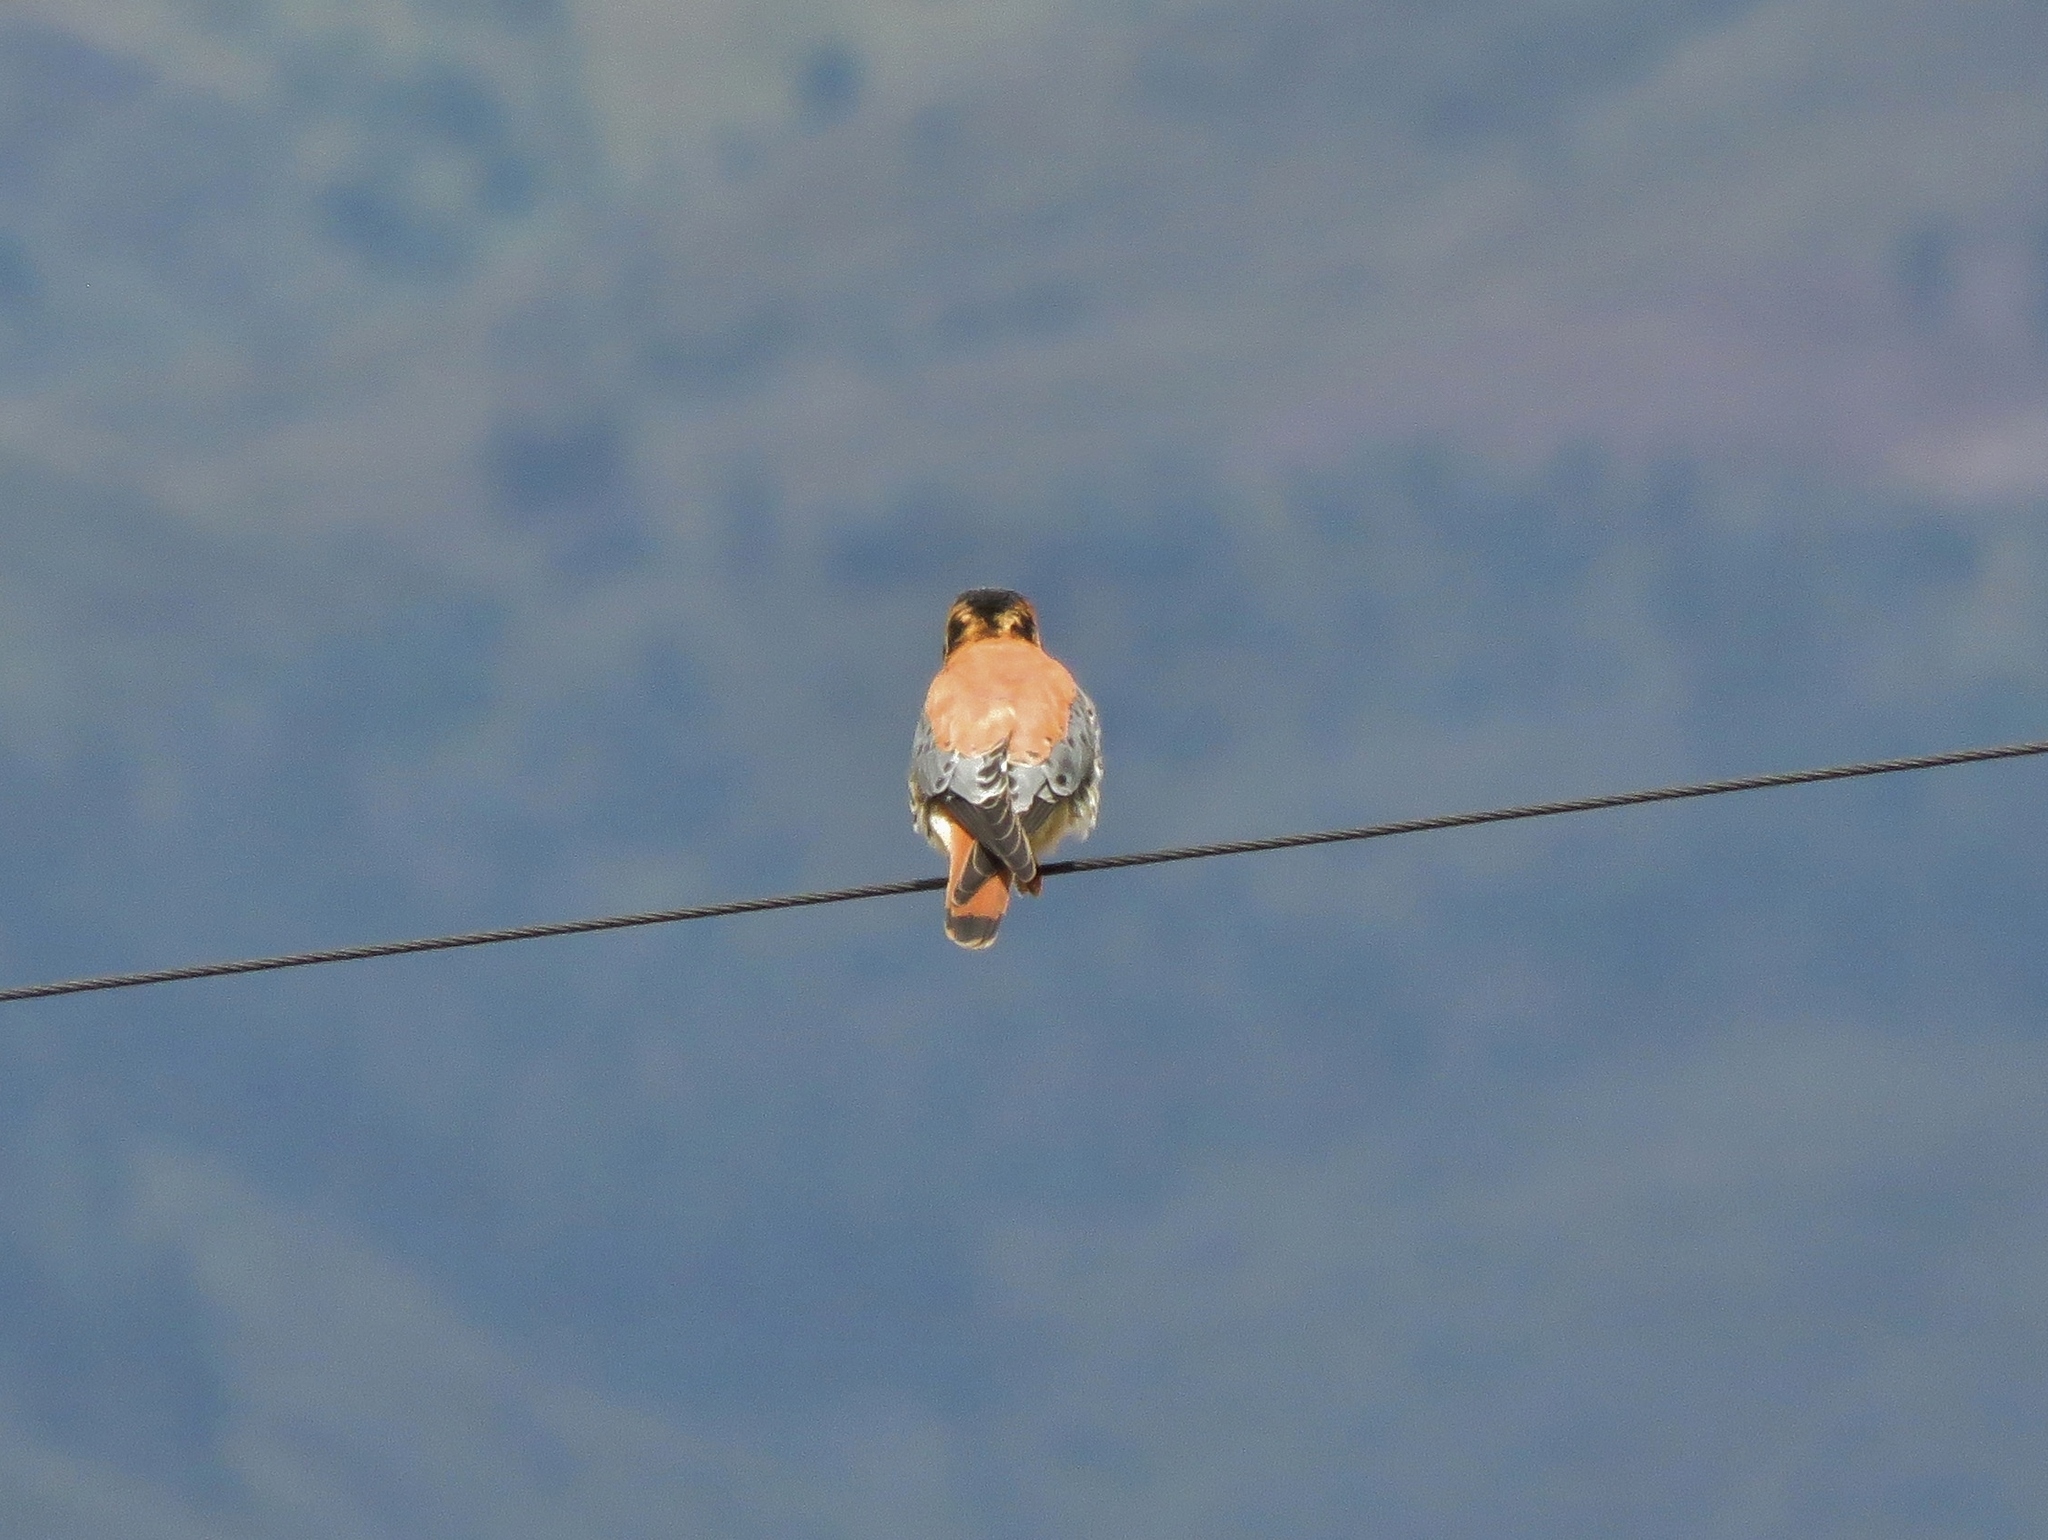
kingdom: Animalia
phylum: Chordata
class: Aves
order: Falconiformes
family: Falconidae
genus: Falco
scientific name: Falco sparverius
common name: American kestrel
